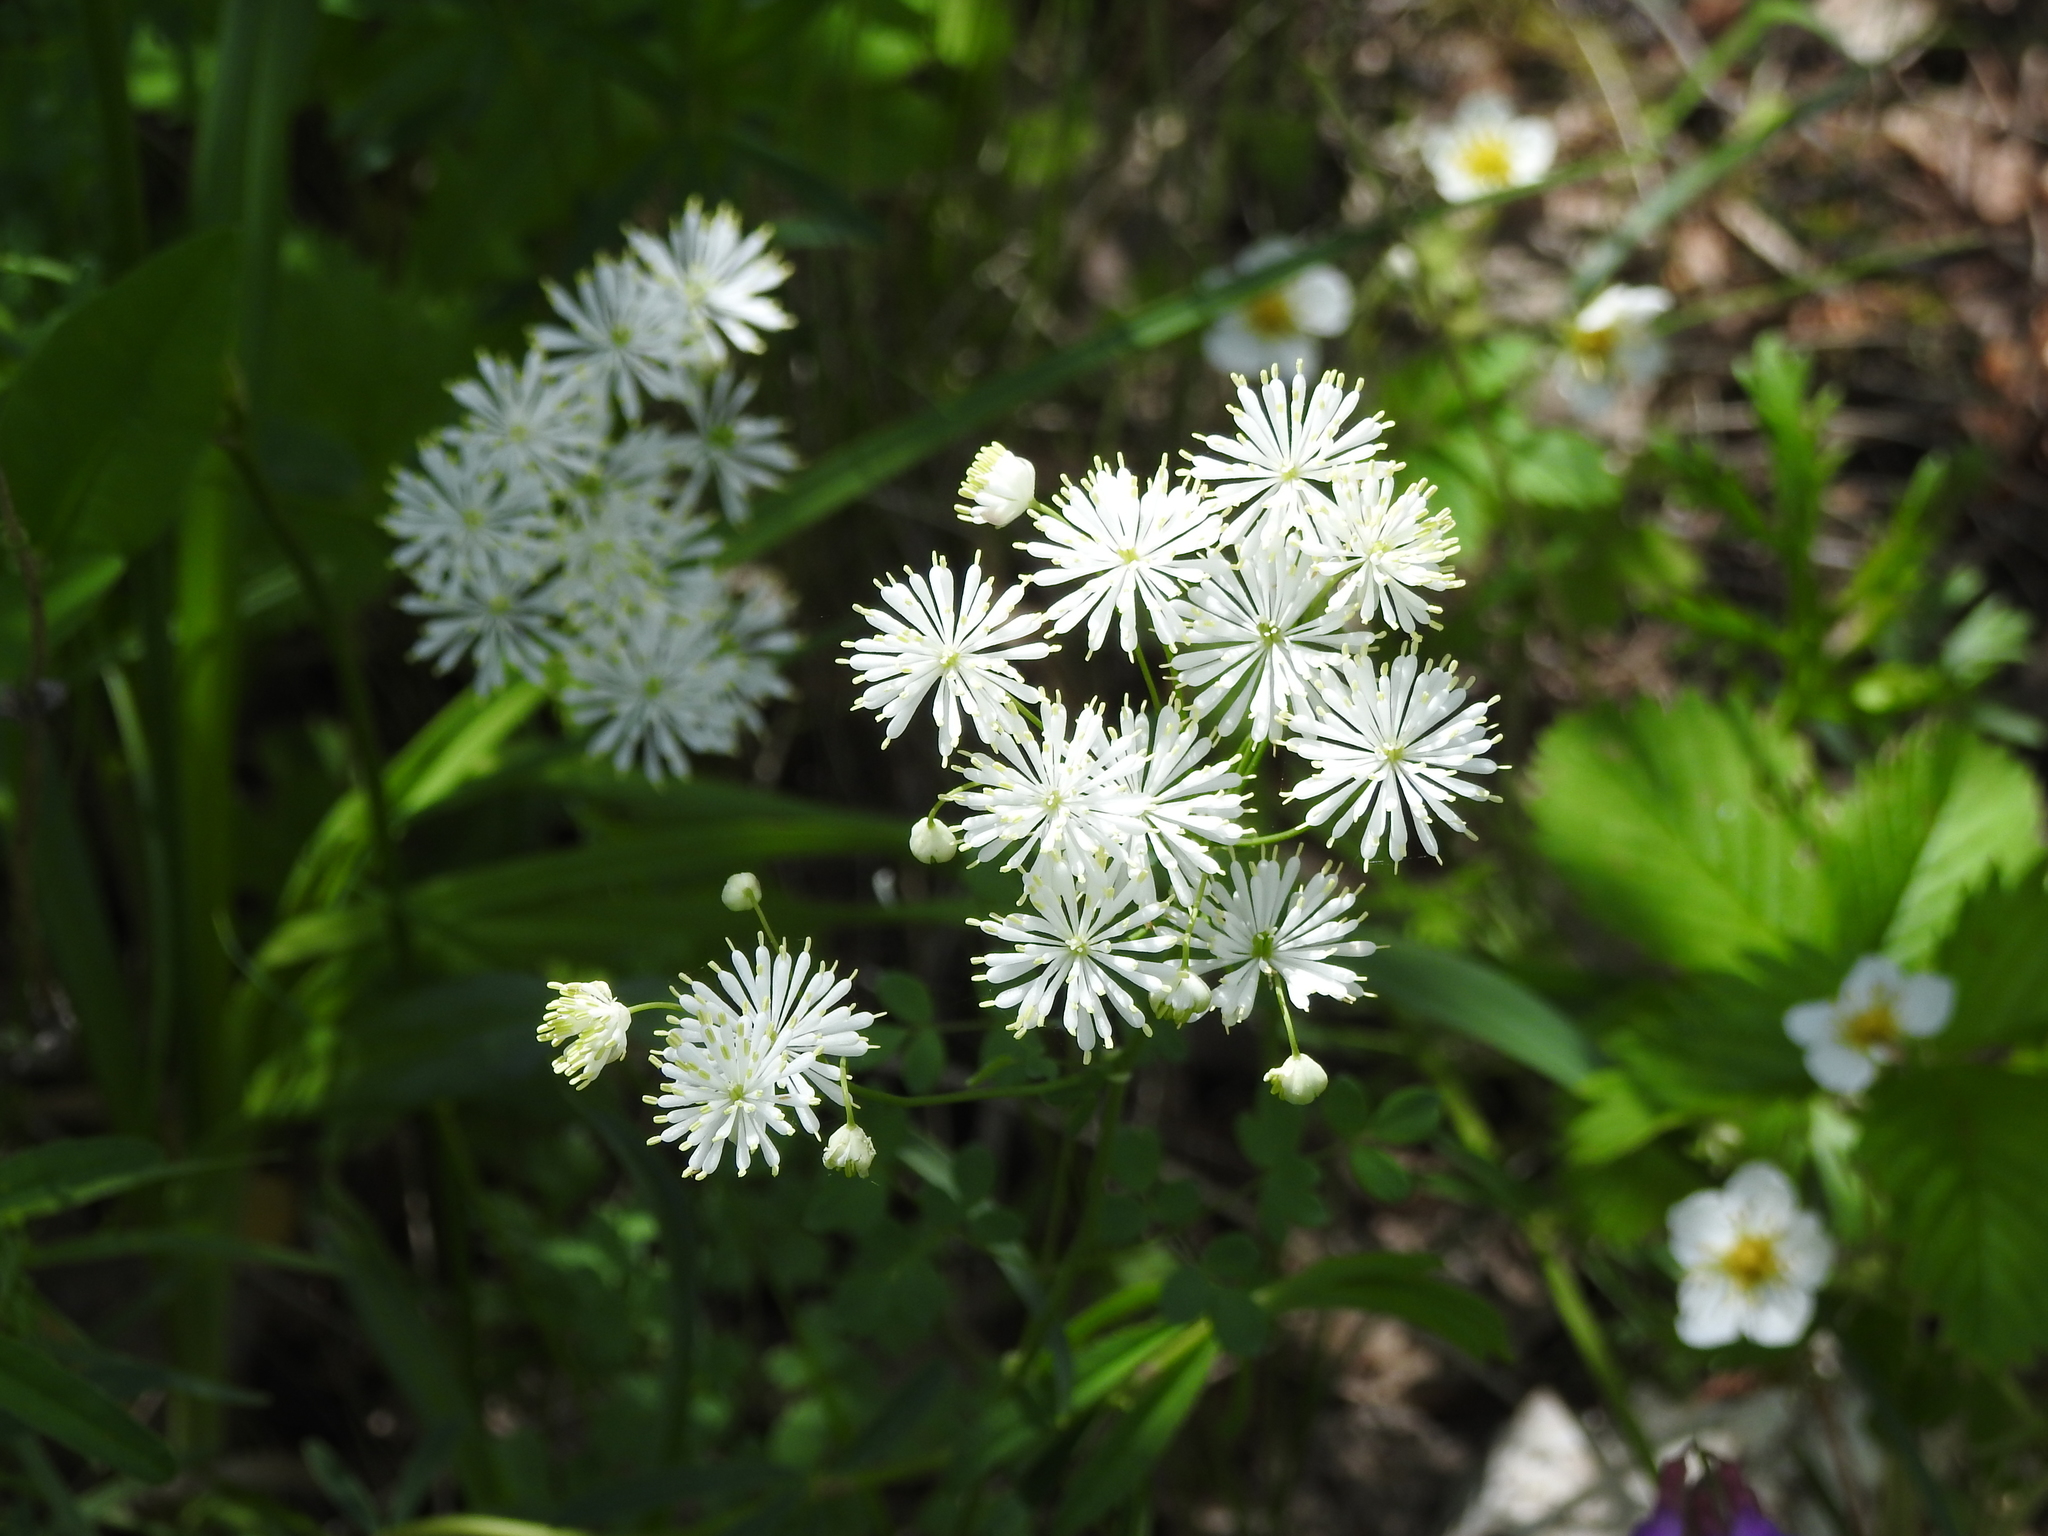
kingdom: Plantae
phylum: Tracheophyta
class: Magnoliopsida
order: Ranunculales
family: Ranunculaceae
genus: Thalictrum
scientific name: Thalictrum petaloideum
